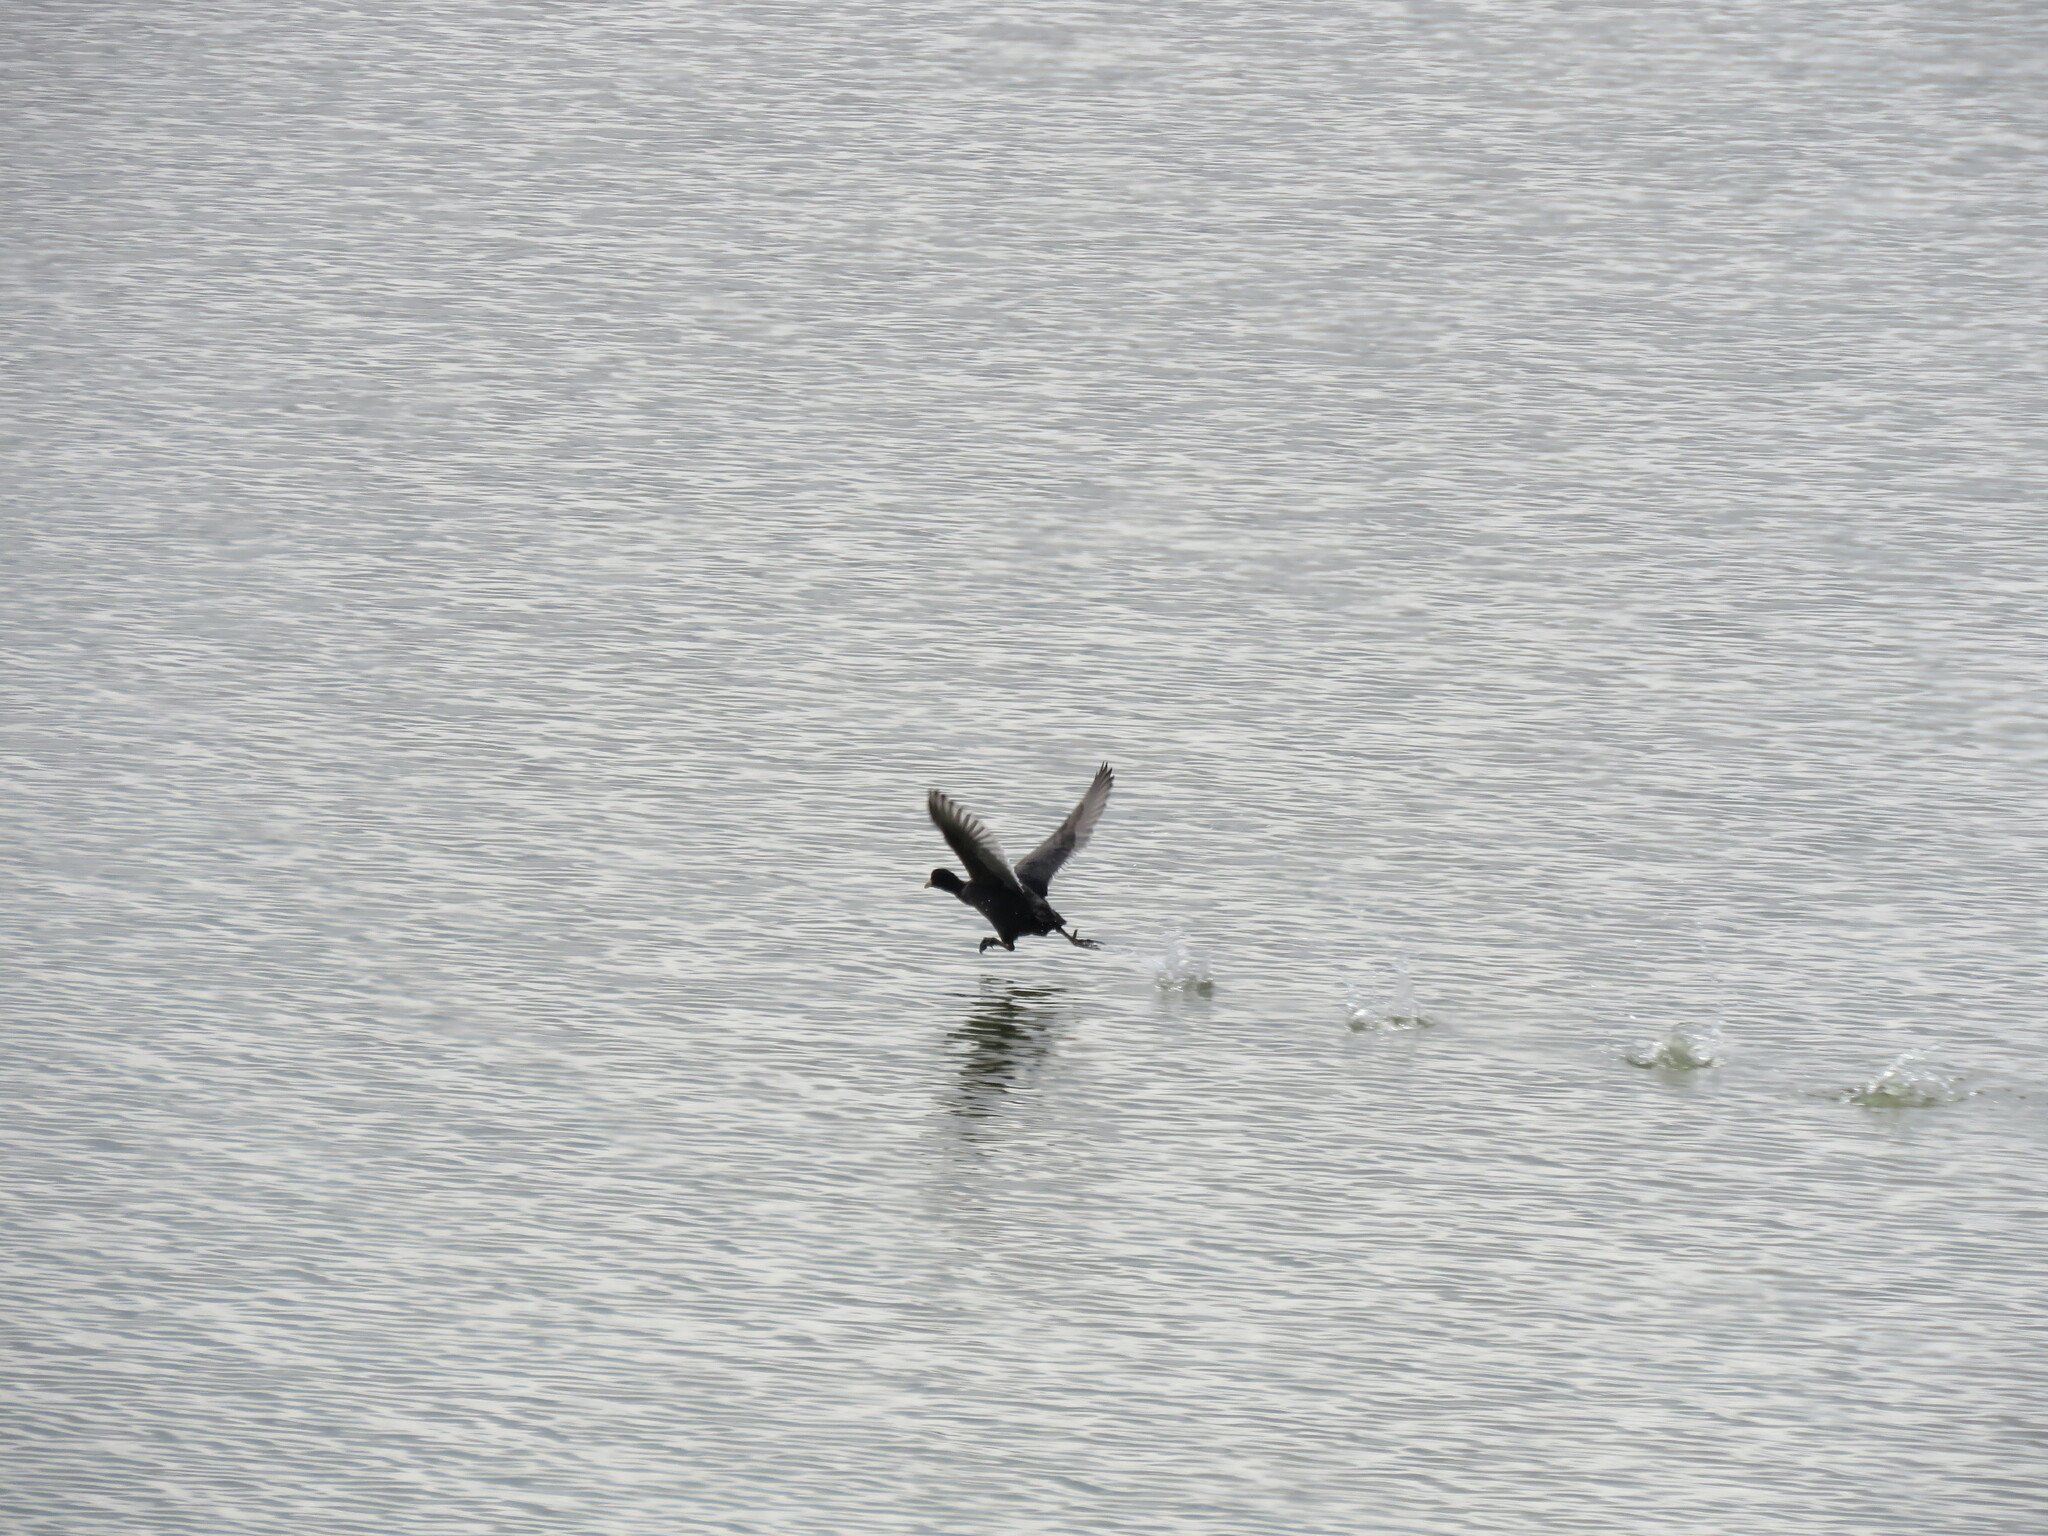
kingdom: Animalia
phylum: Chordata
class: Aves
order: Gruiformes
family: Rallidae
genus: Fulica
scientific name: Fulica atra
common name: Eurasian coot
